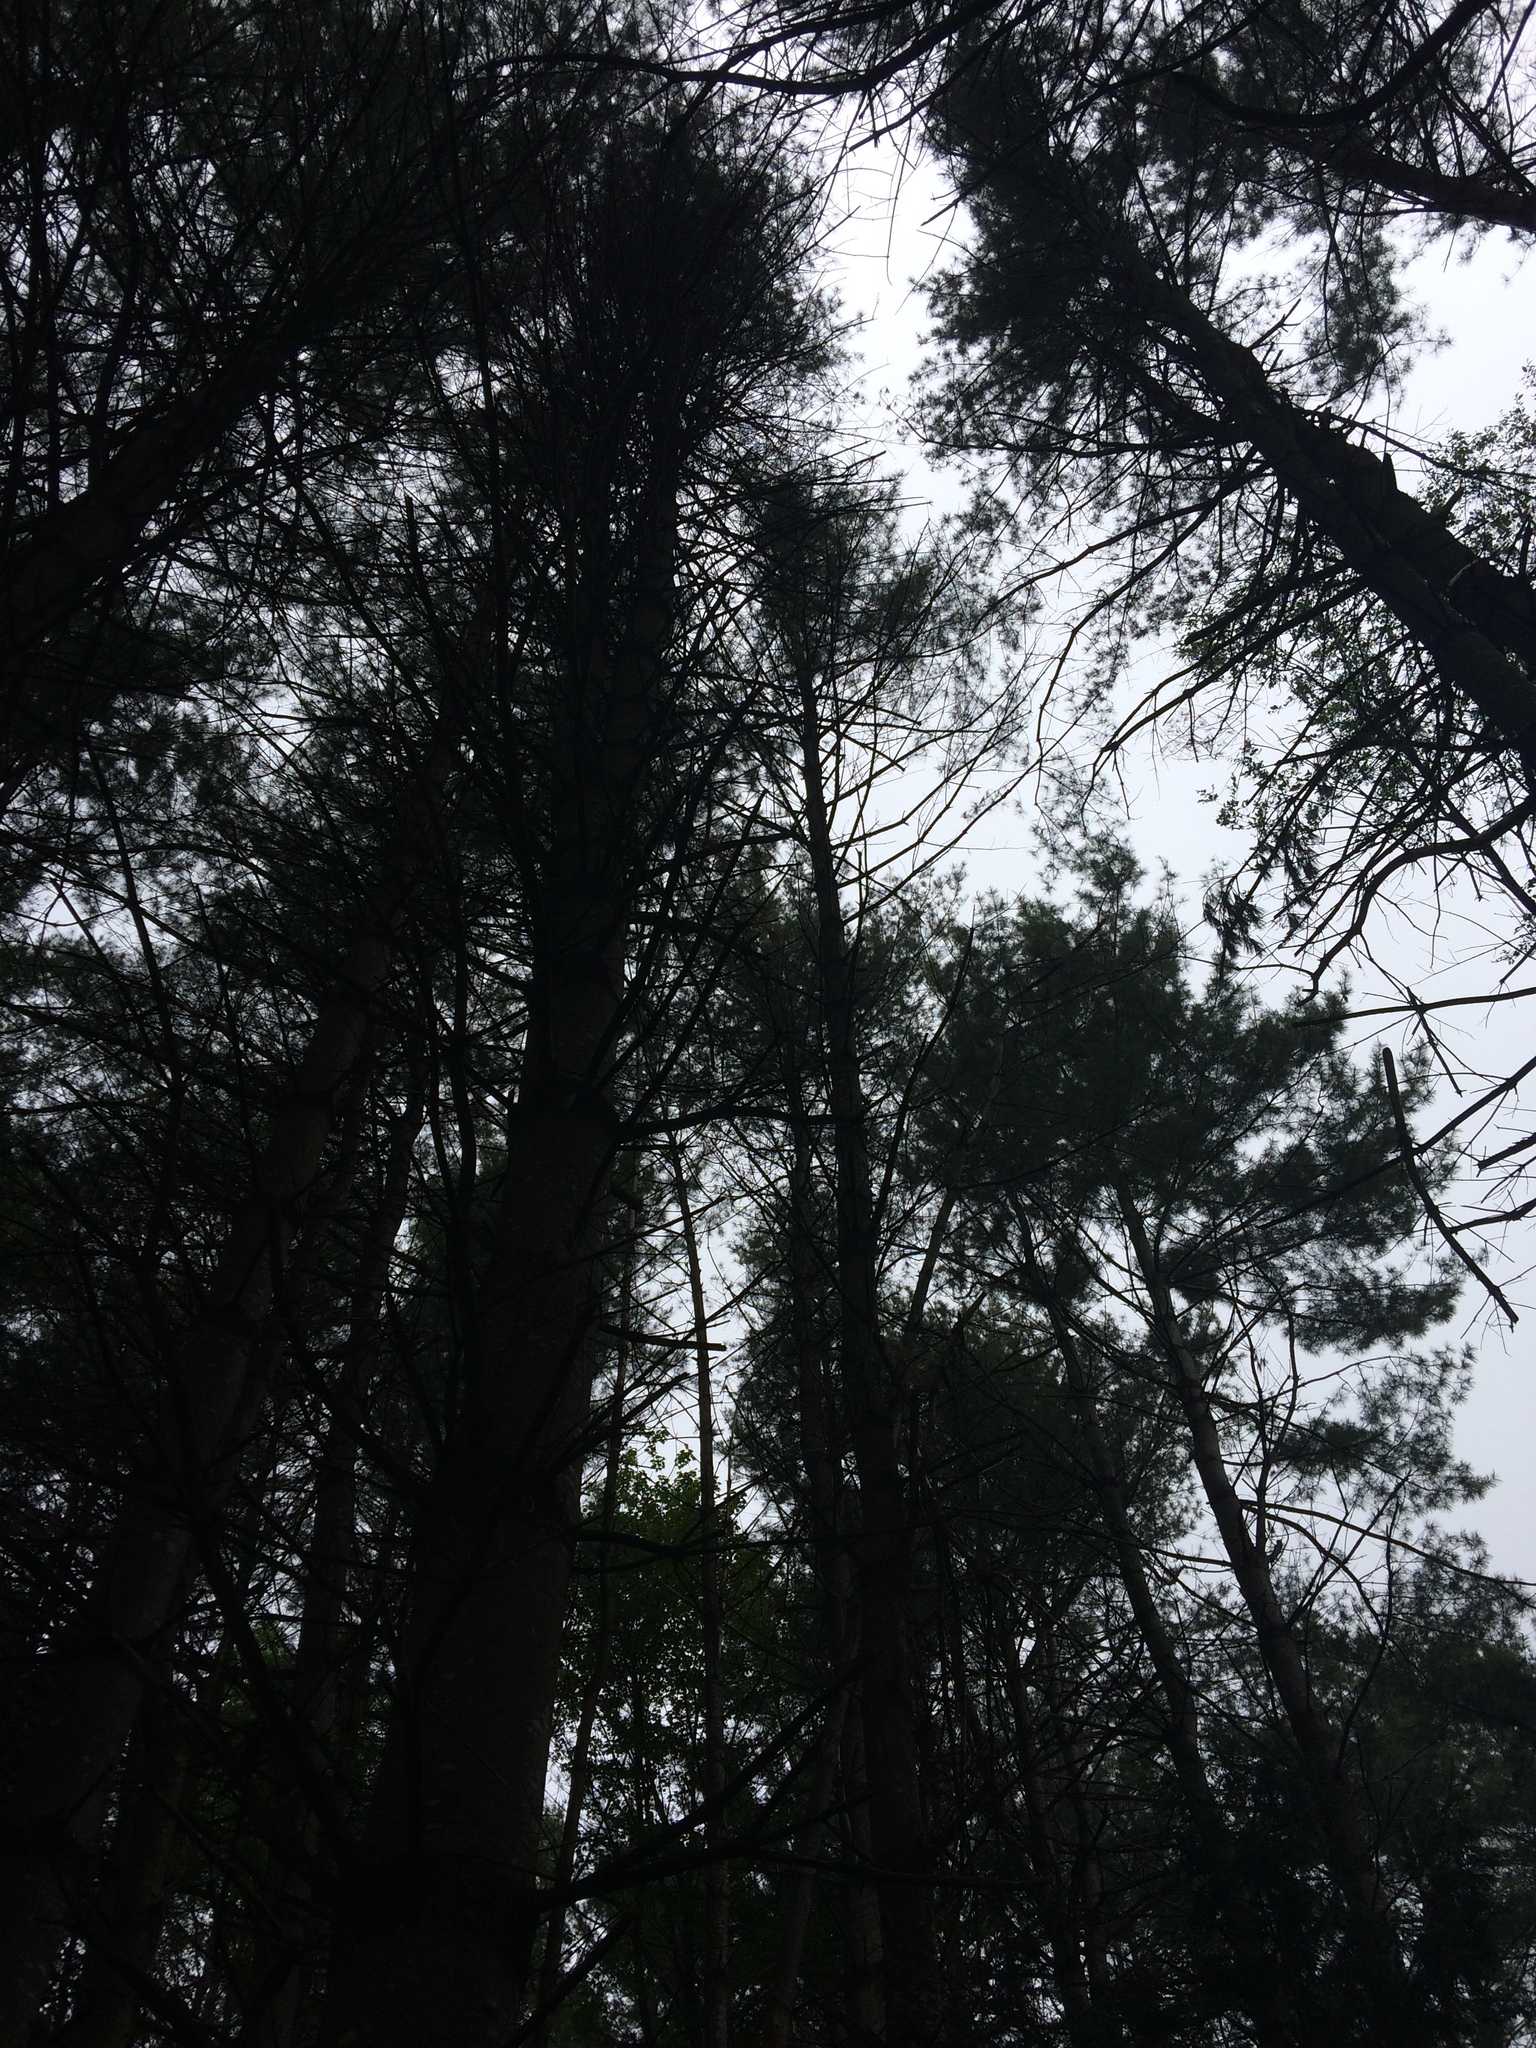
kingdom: Plantae
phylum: Tracheophyta
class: Pinopsida
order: Pinales
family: Pinaceae
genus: Pinus
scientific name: Pinus strobus
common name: Weymouth pine
